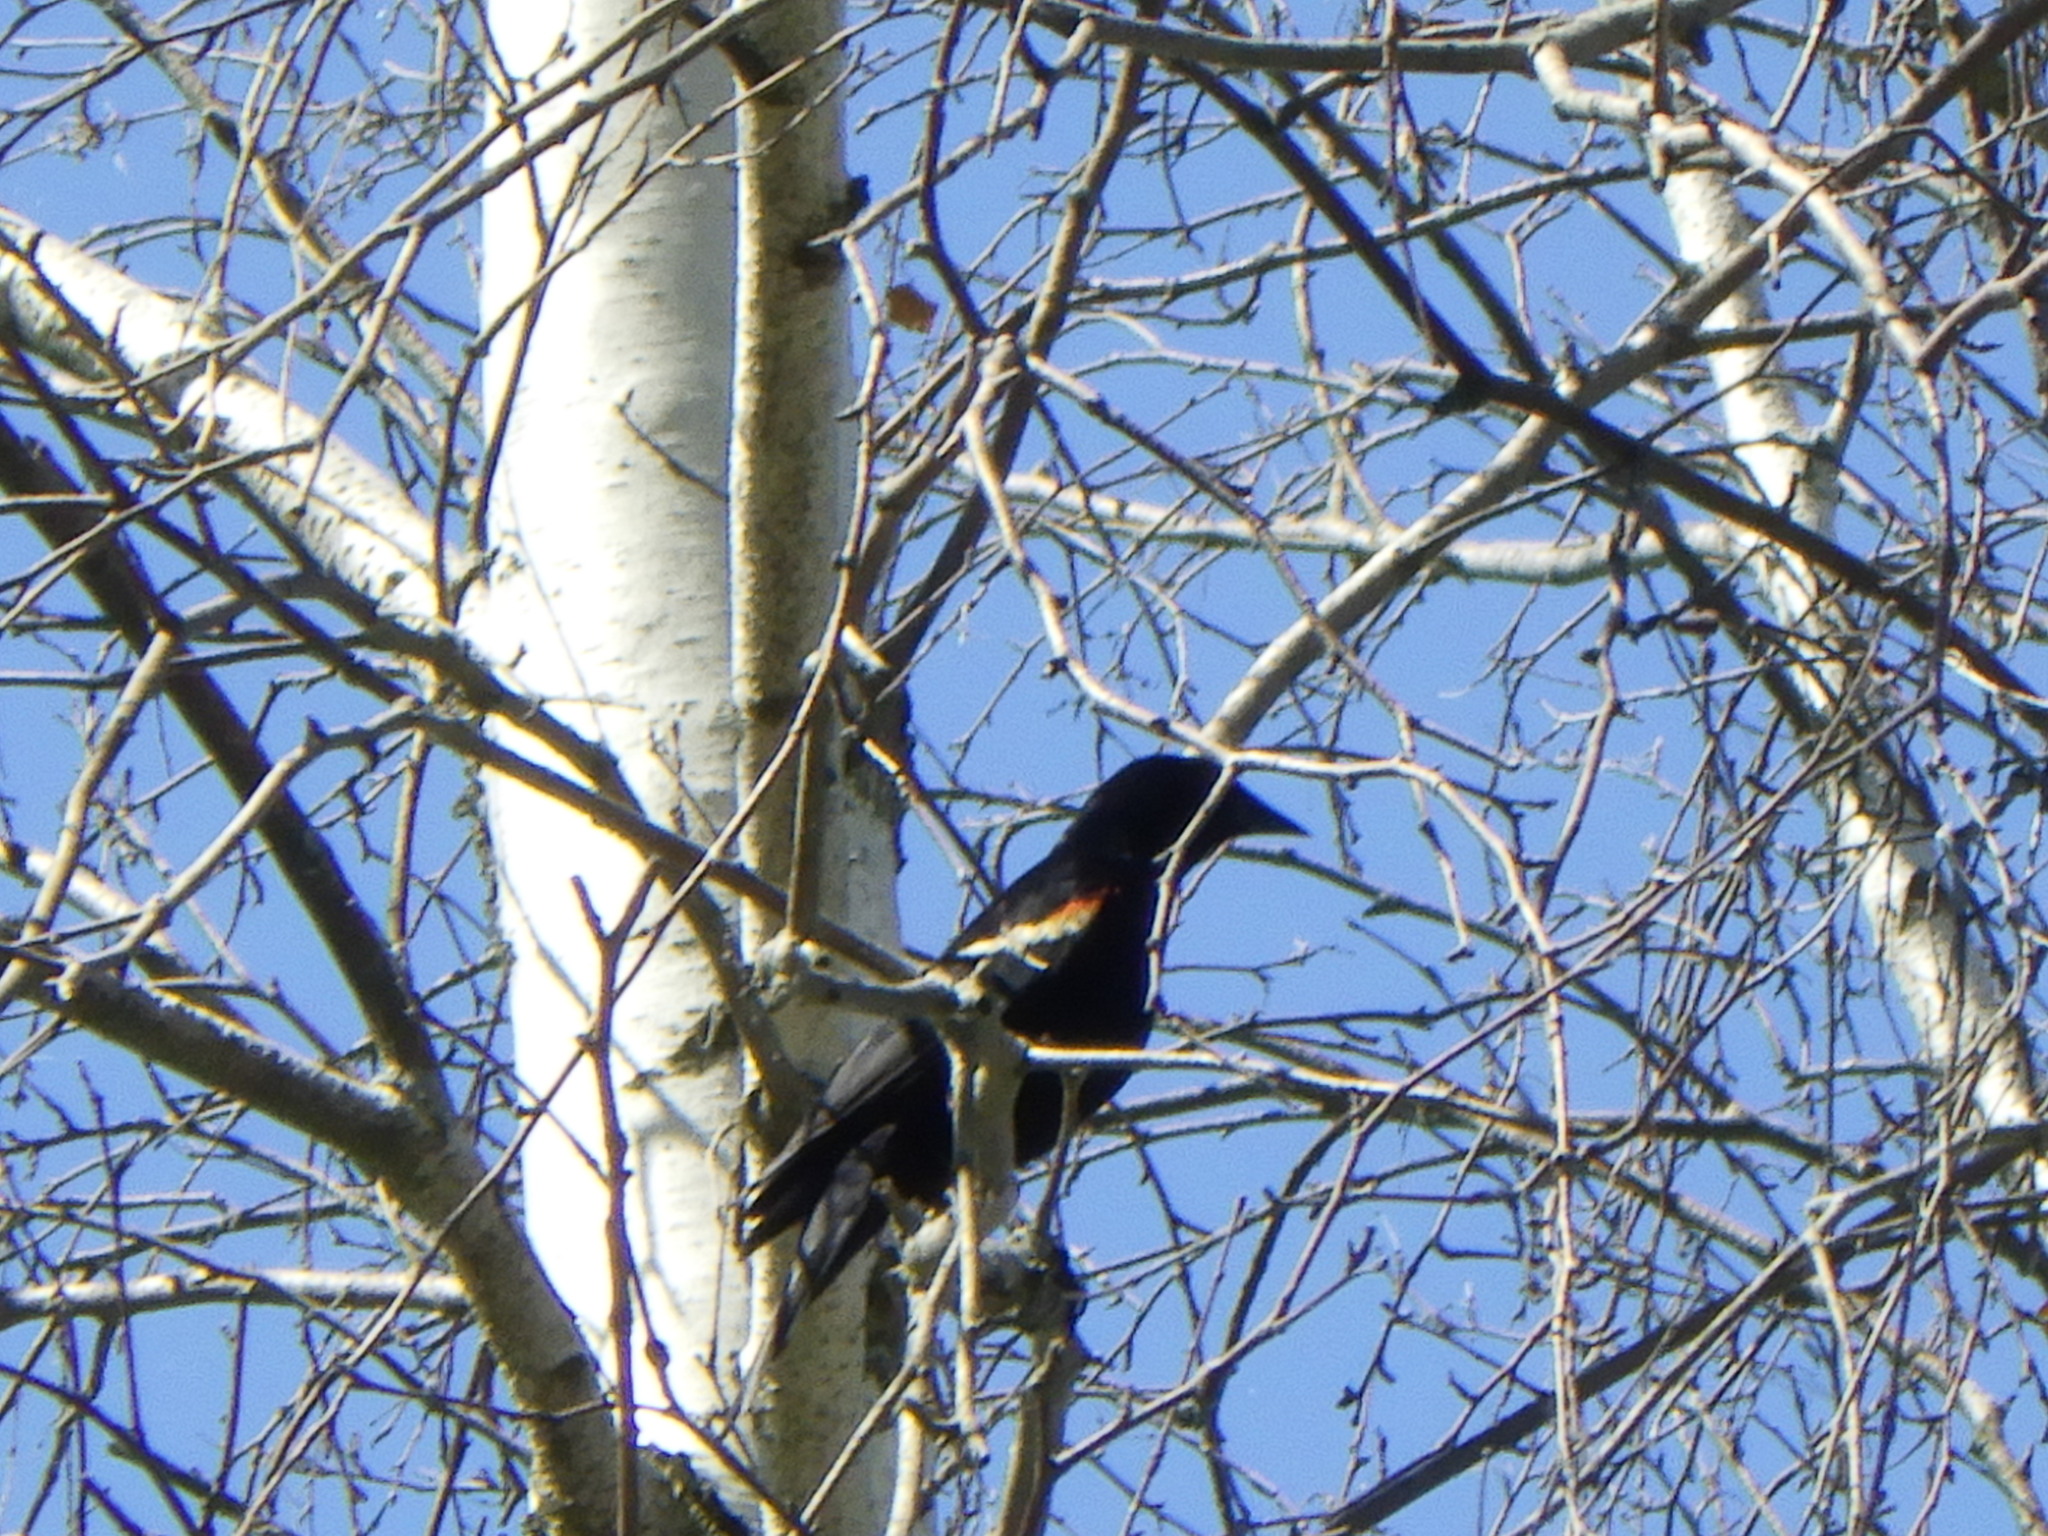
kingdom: Animalia
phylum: Chordata
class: Aves
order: Passeriformes
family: Icteridae
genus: Agelaius
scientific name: Agelaius phoeniceus
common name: Red-winged blackbird
